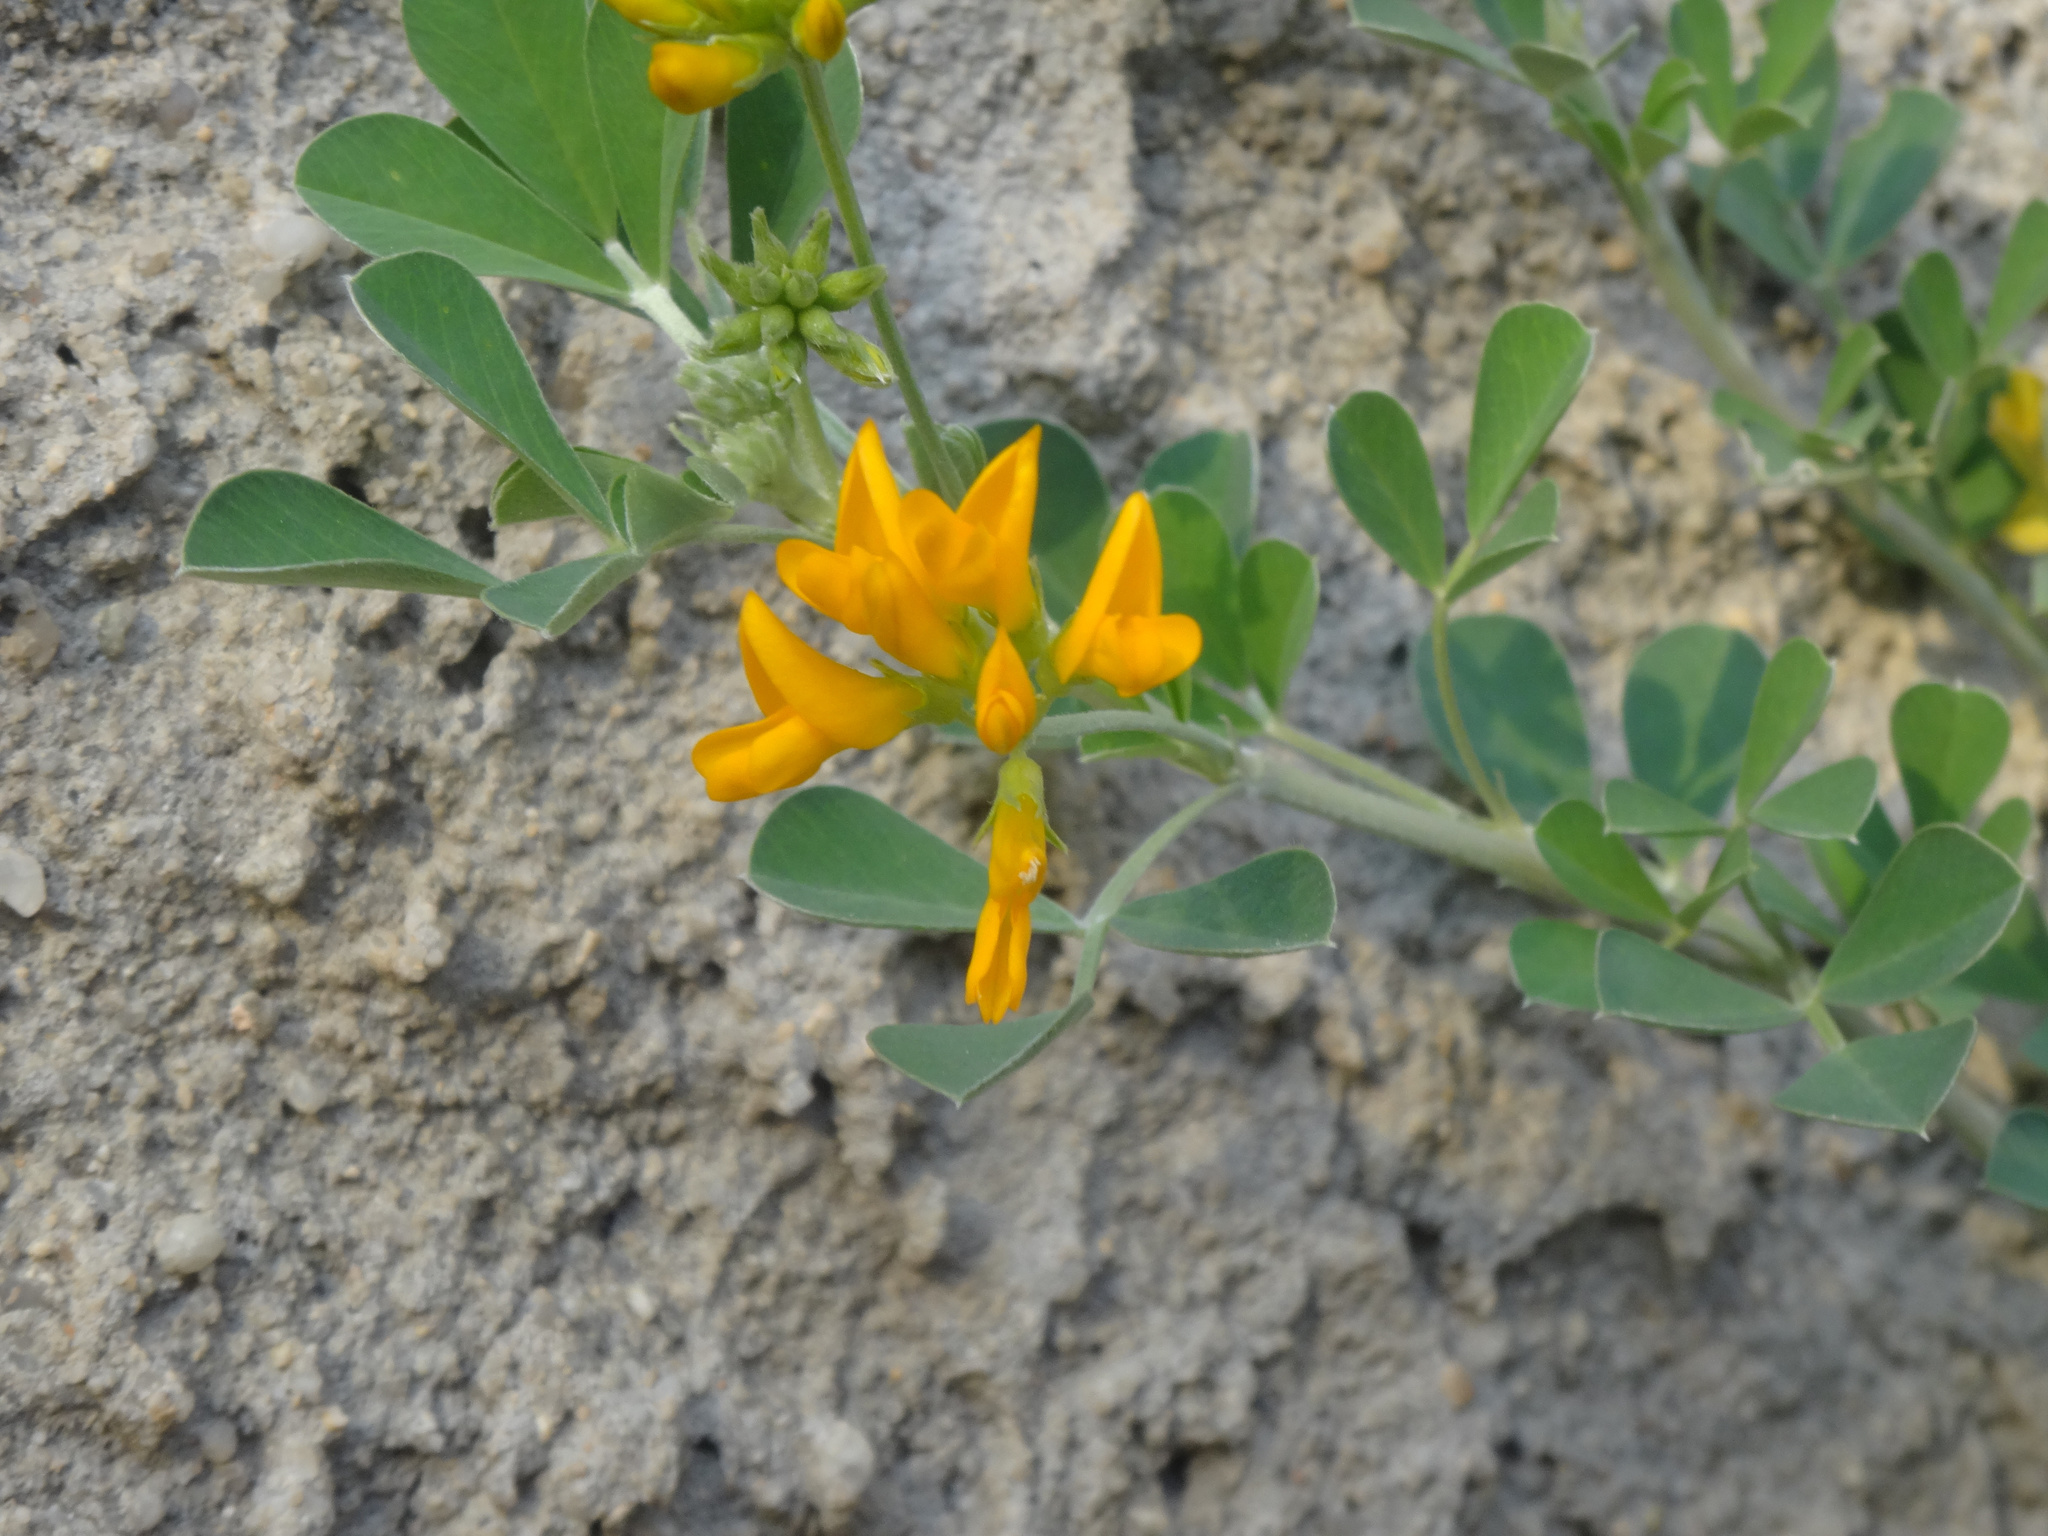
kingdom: Plantae
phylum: Tracheophyta
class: Magnoliopsida
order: Fabales
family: Fabaceae
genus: Medicago
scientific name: Medicago arborea
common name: Moon trefoil
